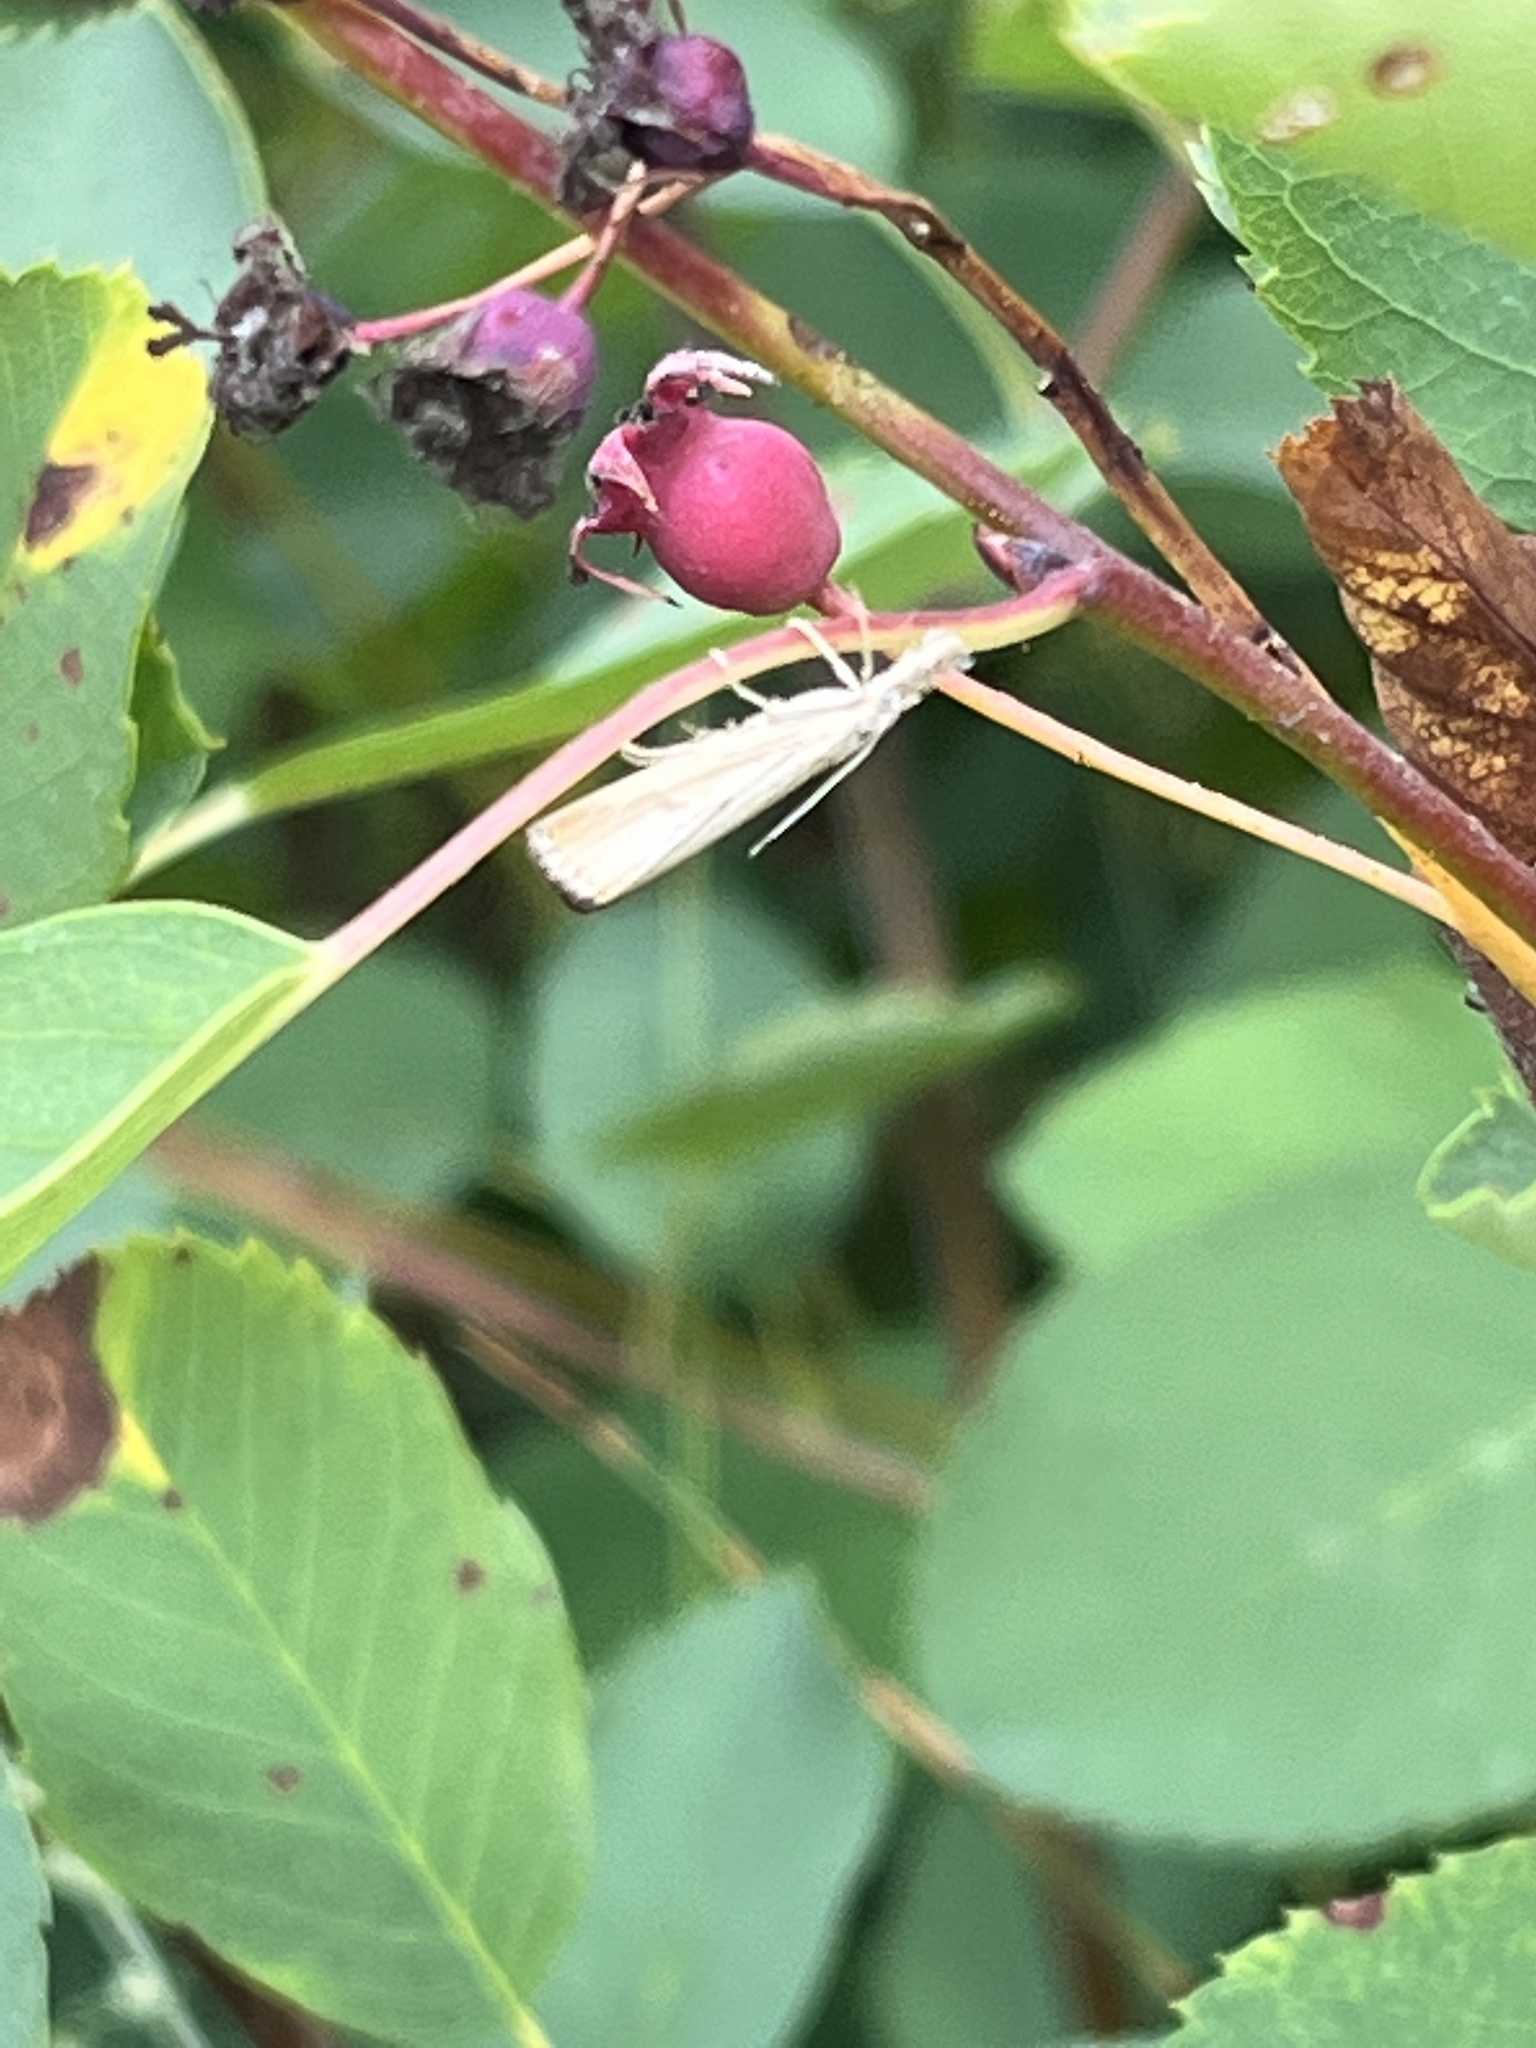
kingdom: Plantae
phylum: Tracheophyta
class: Magnoliopsida
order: Rosales
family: Rosaceae
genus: Amelanchier
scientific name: Amelanchier alnifolia
